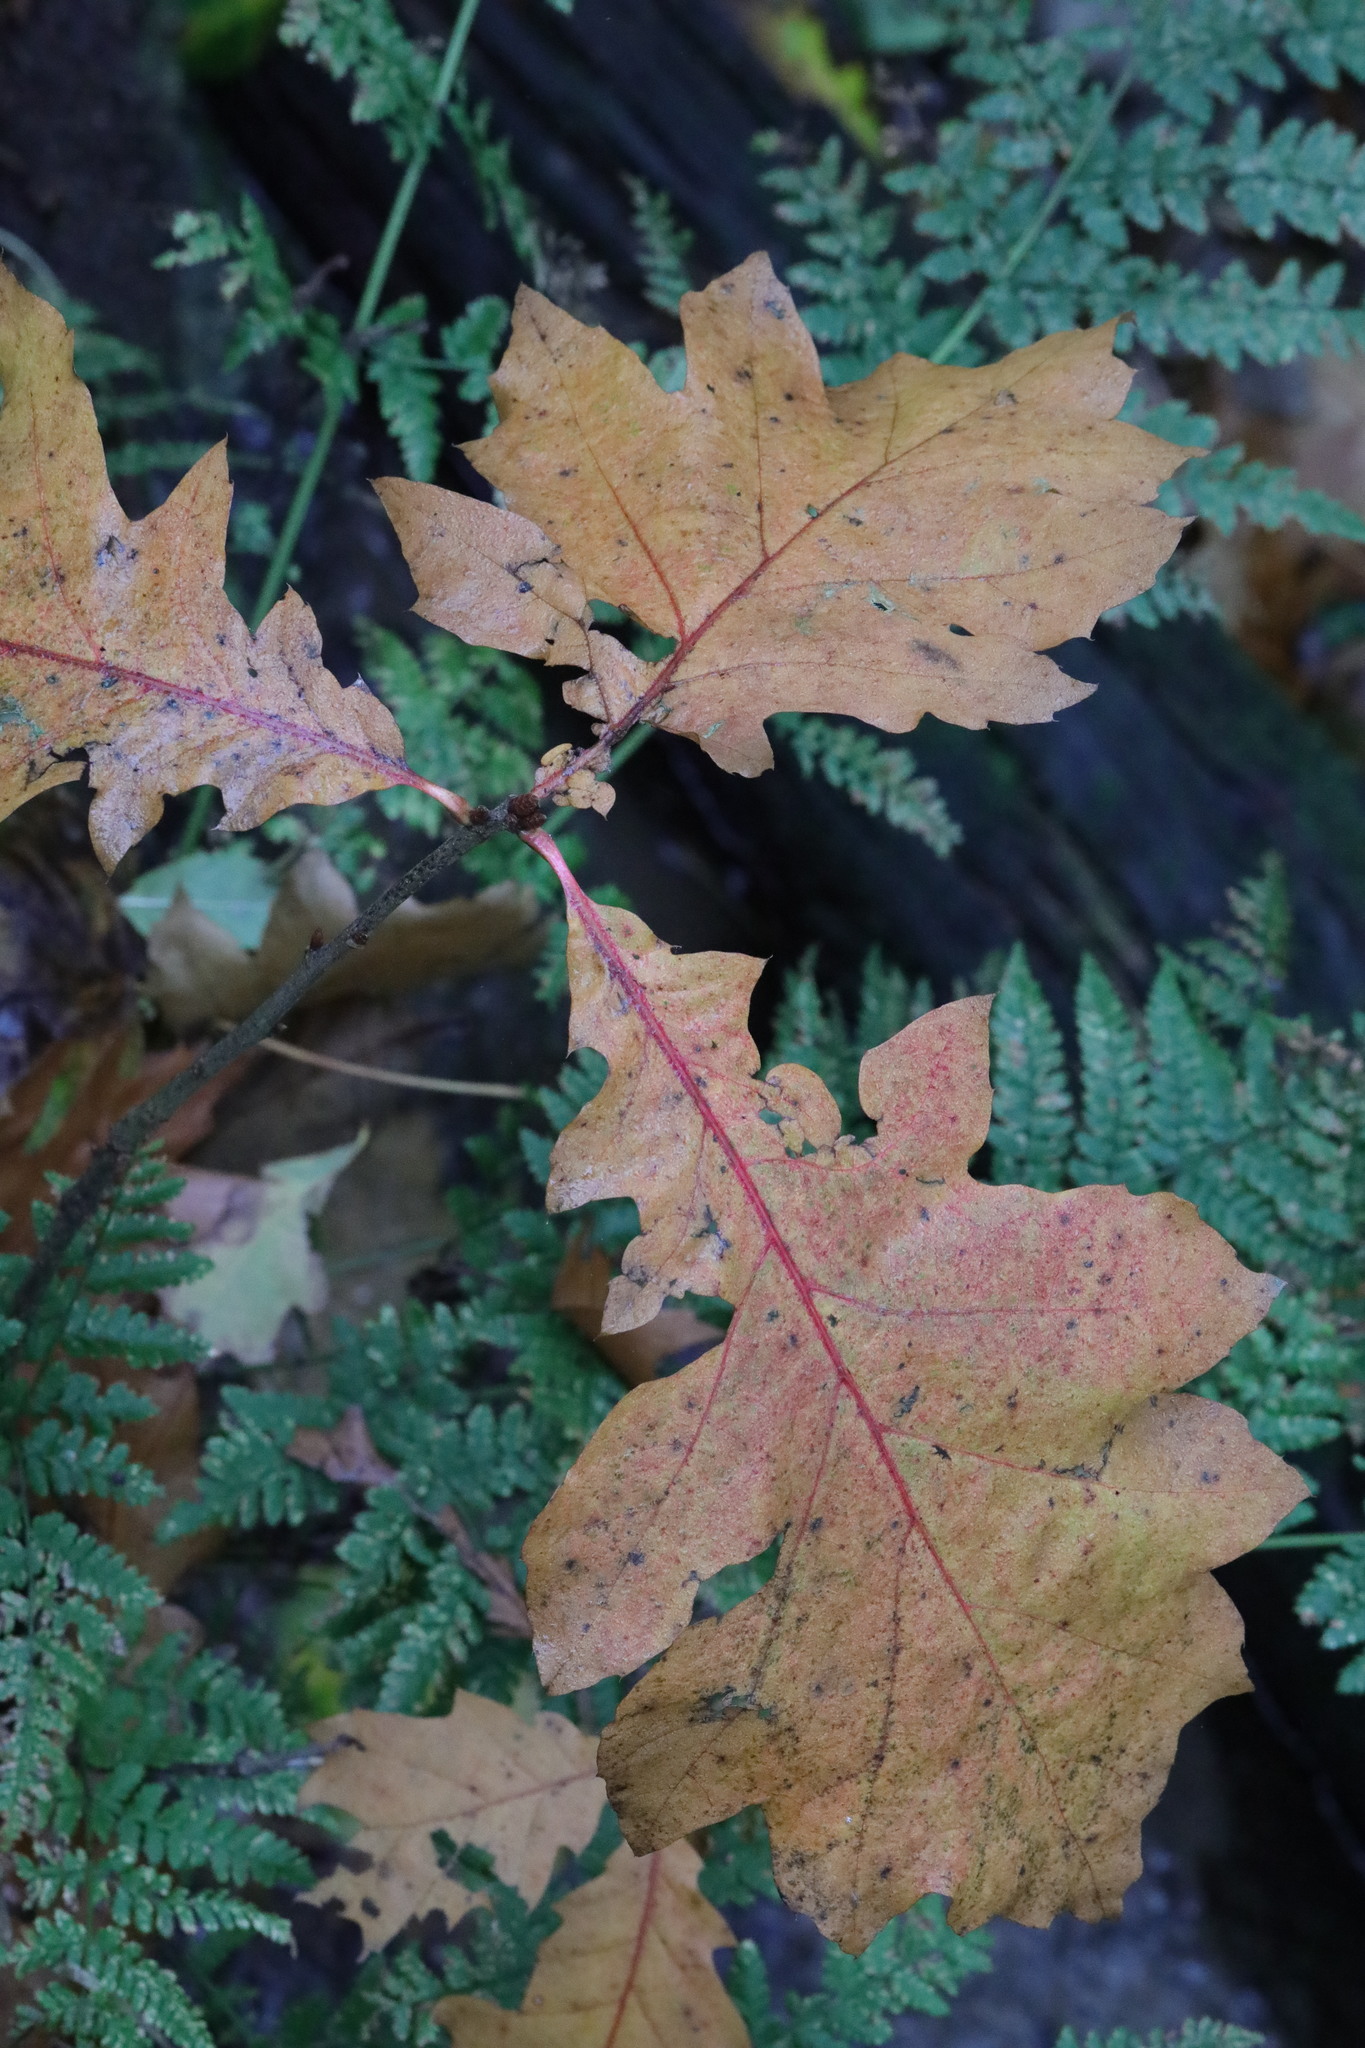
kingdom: Plantae
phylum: Tracheophyta
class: Magnoliopsida
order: Fagales
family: Fagaceae
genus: Quercus
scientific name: Quercus rubra
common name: Red oak
